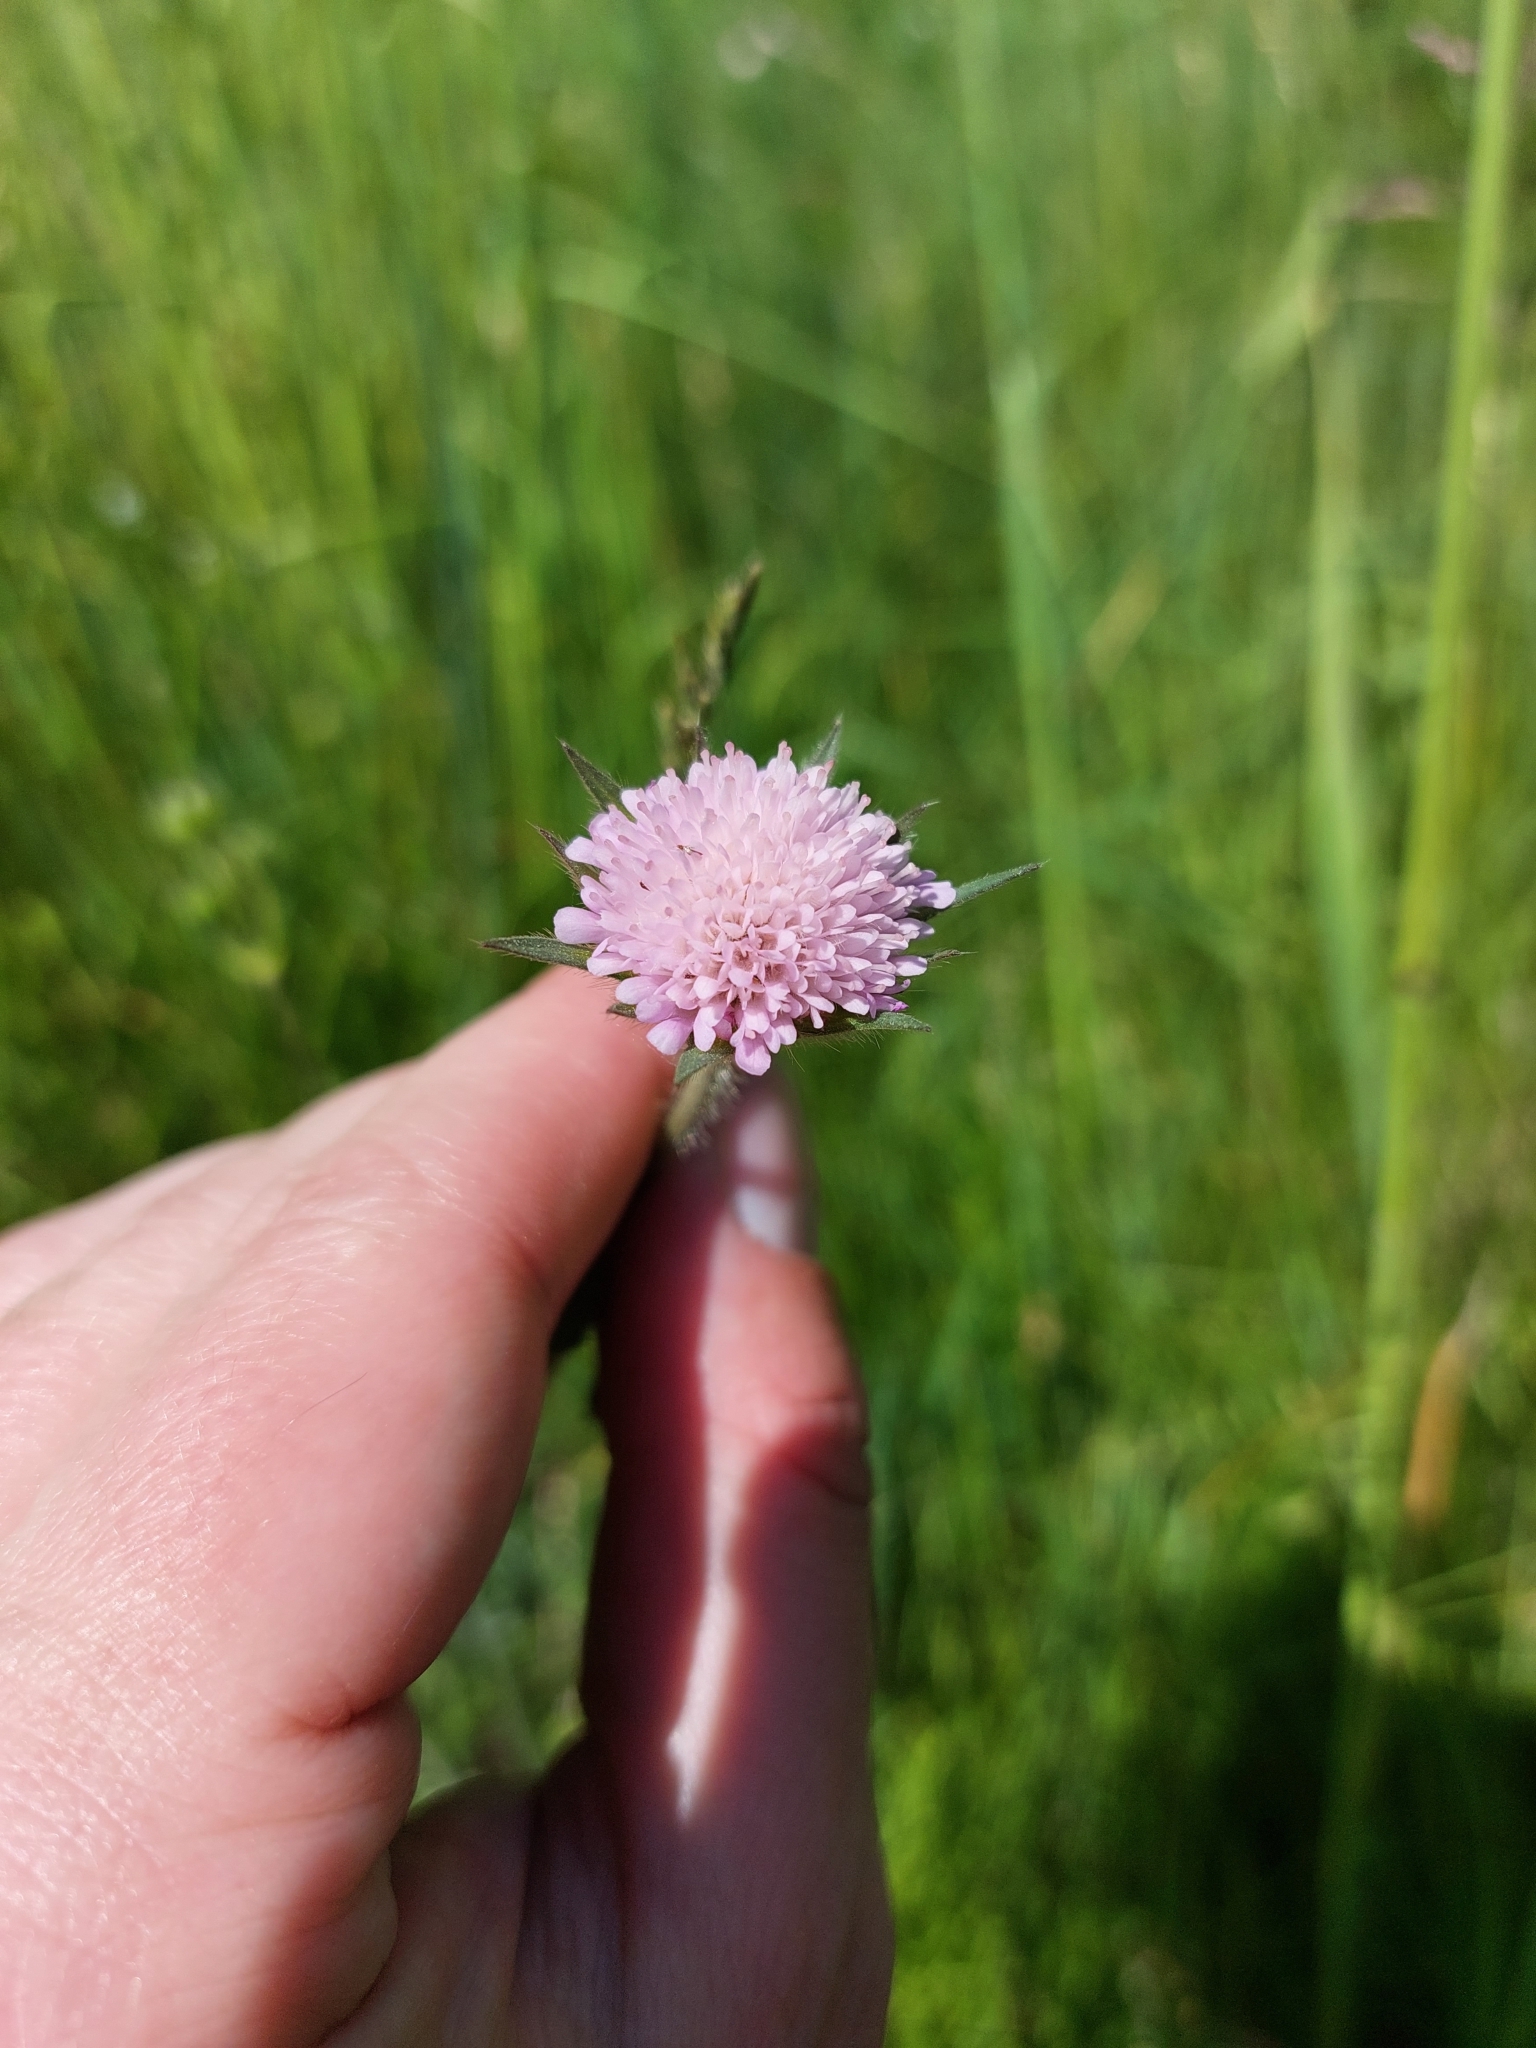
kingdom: Plantae
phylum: Tracheophyta
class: Magnoliopsida
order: Dipsacales
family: Caprifoliaceae
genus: Knautia
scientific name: Knautia arvensis
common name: Field scabiosa
